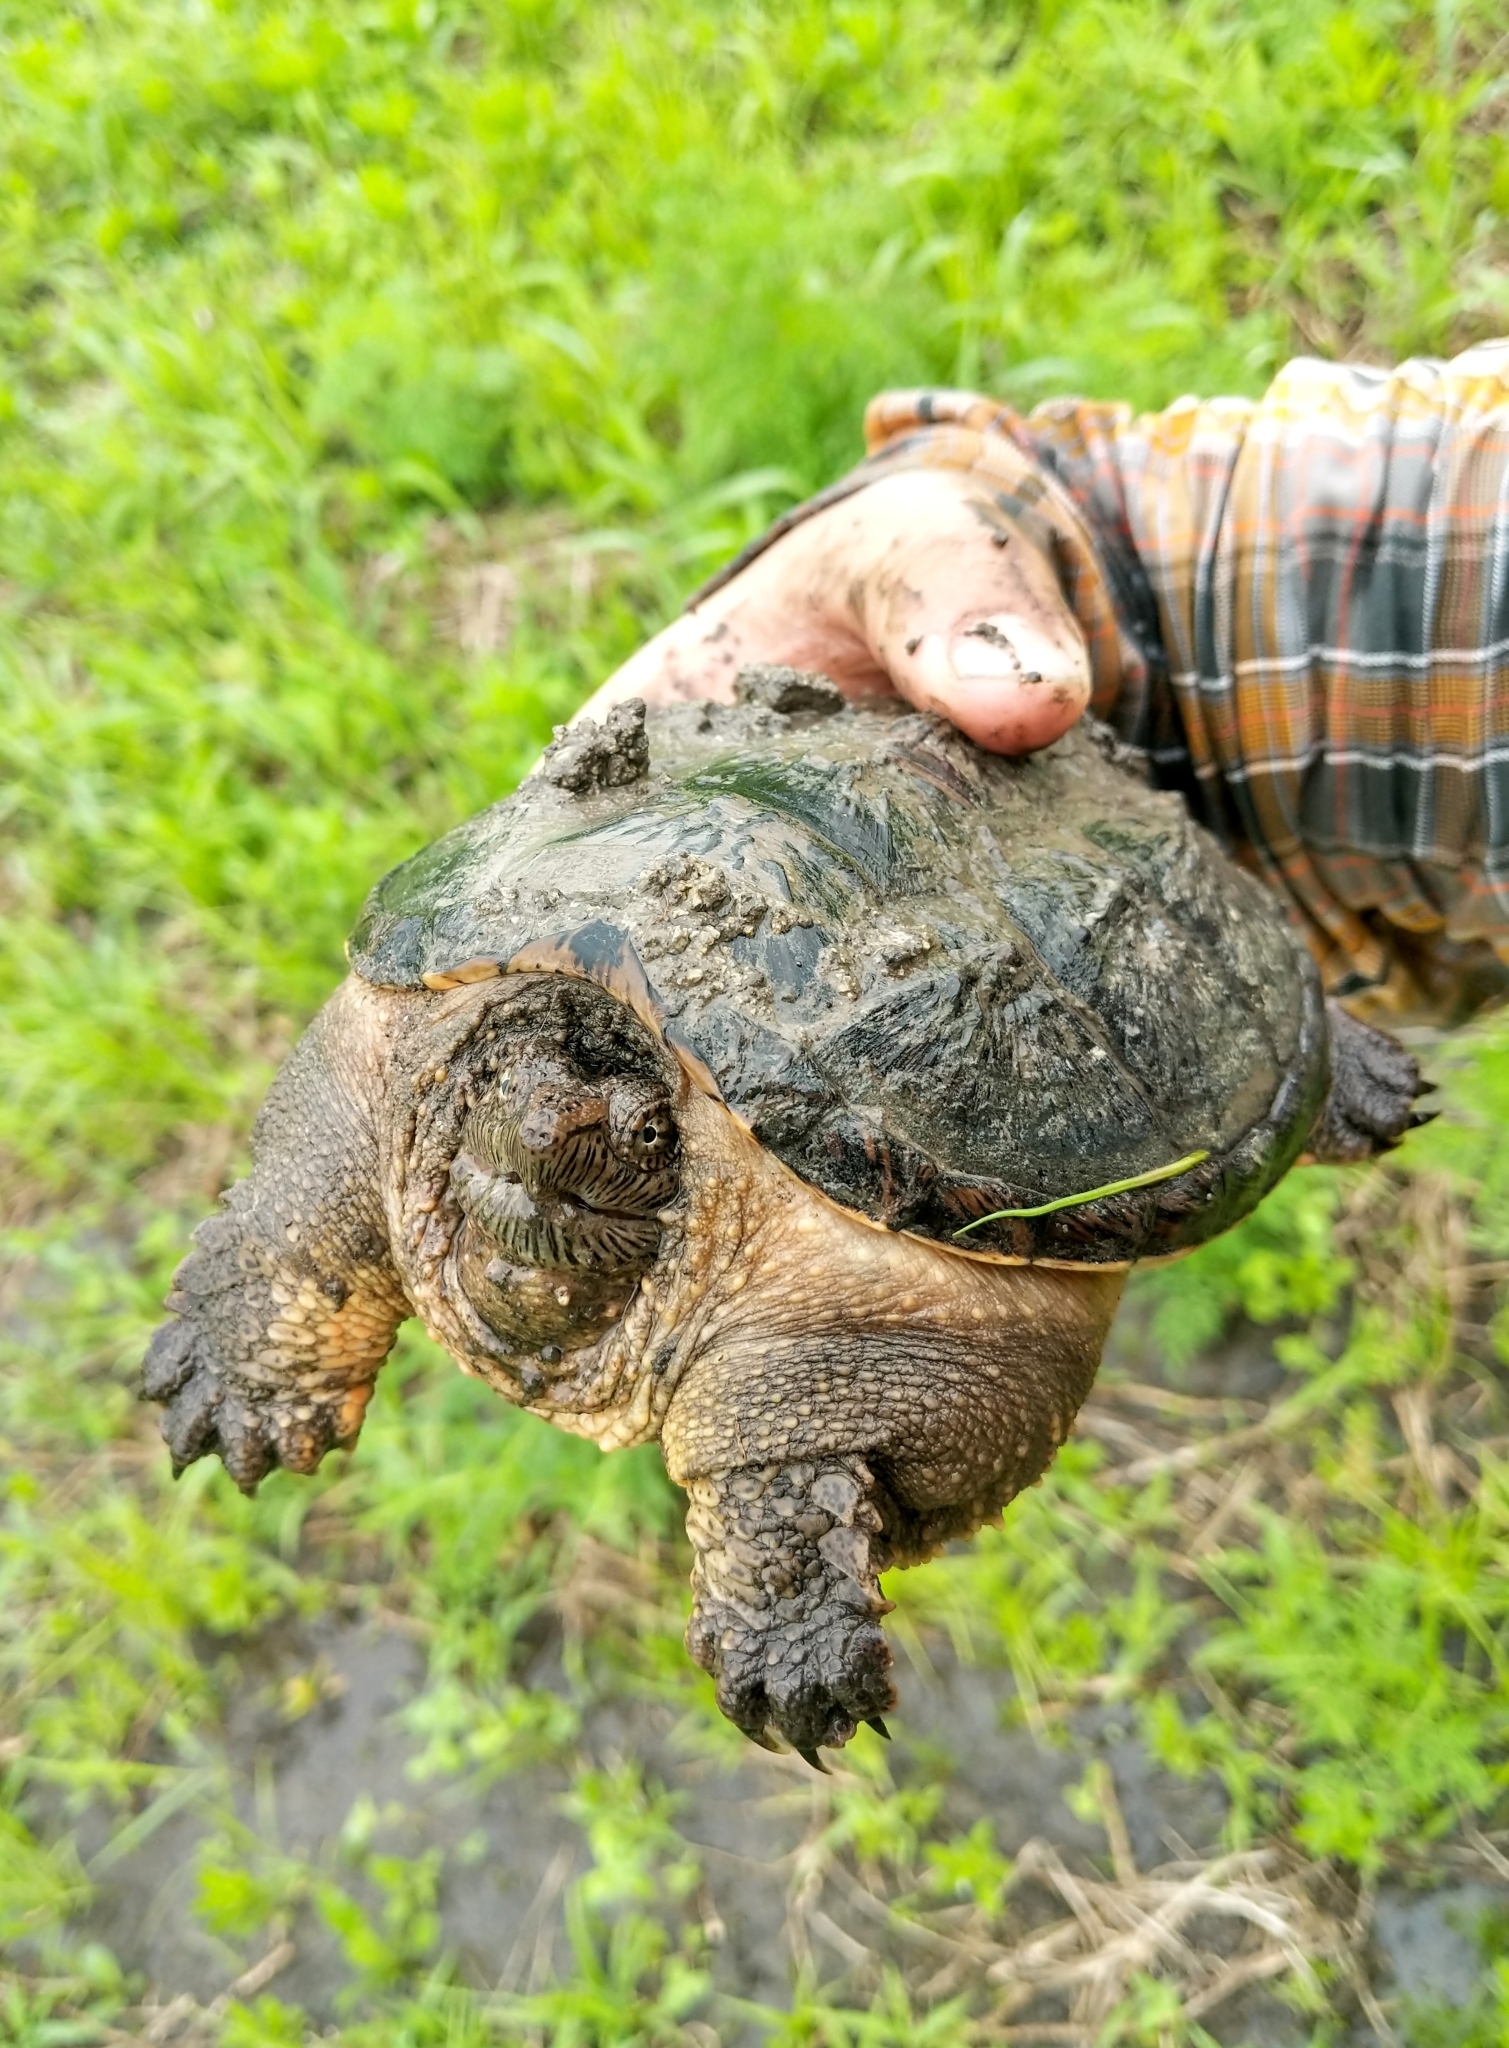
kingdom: Animalia
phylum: Chordata
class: Testudines
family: Chelydridae
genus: Chelydra
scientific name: Chelydra serpentina
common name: Common snapping turtle
